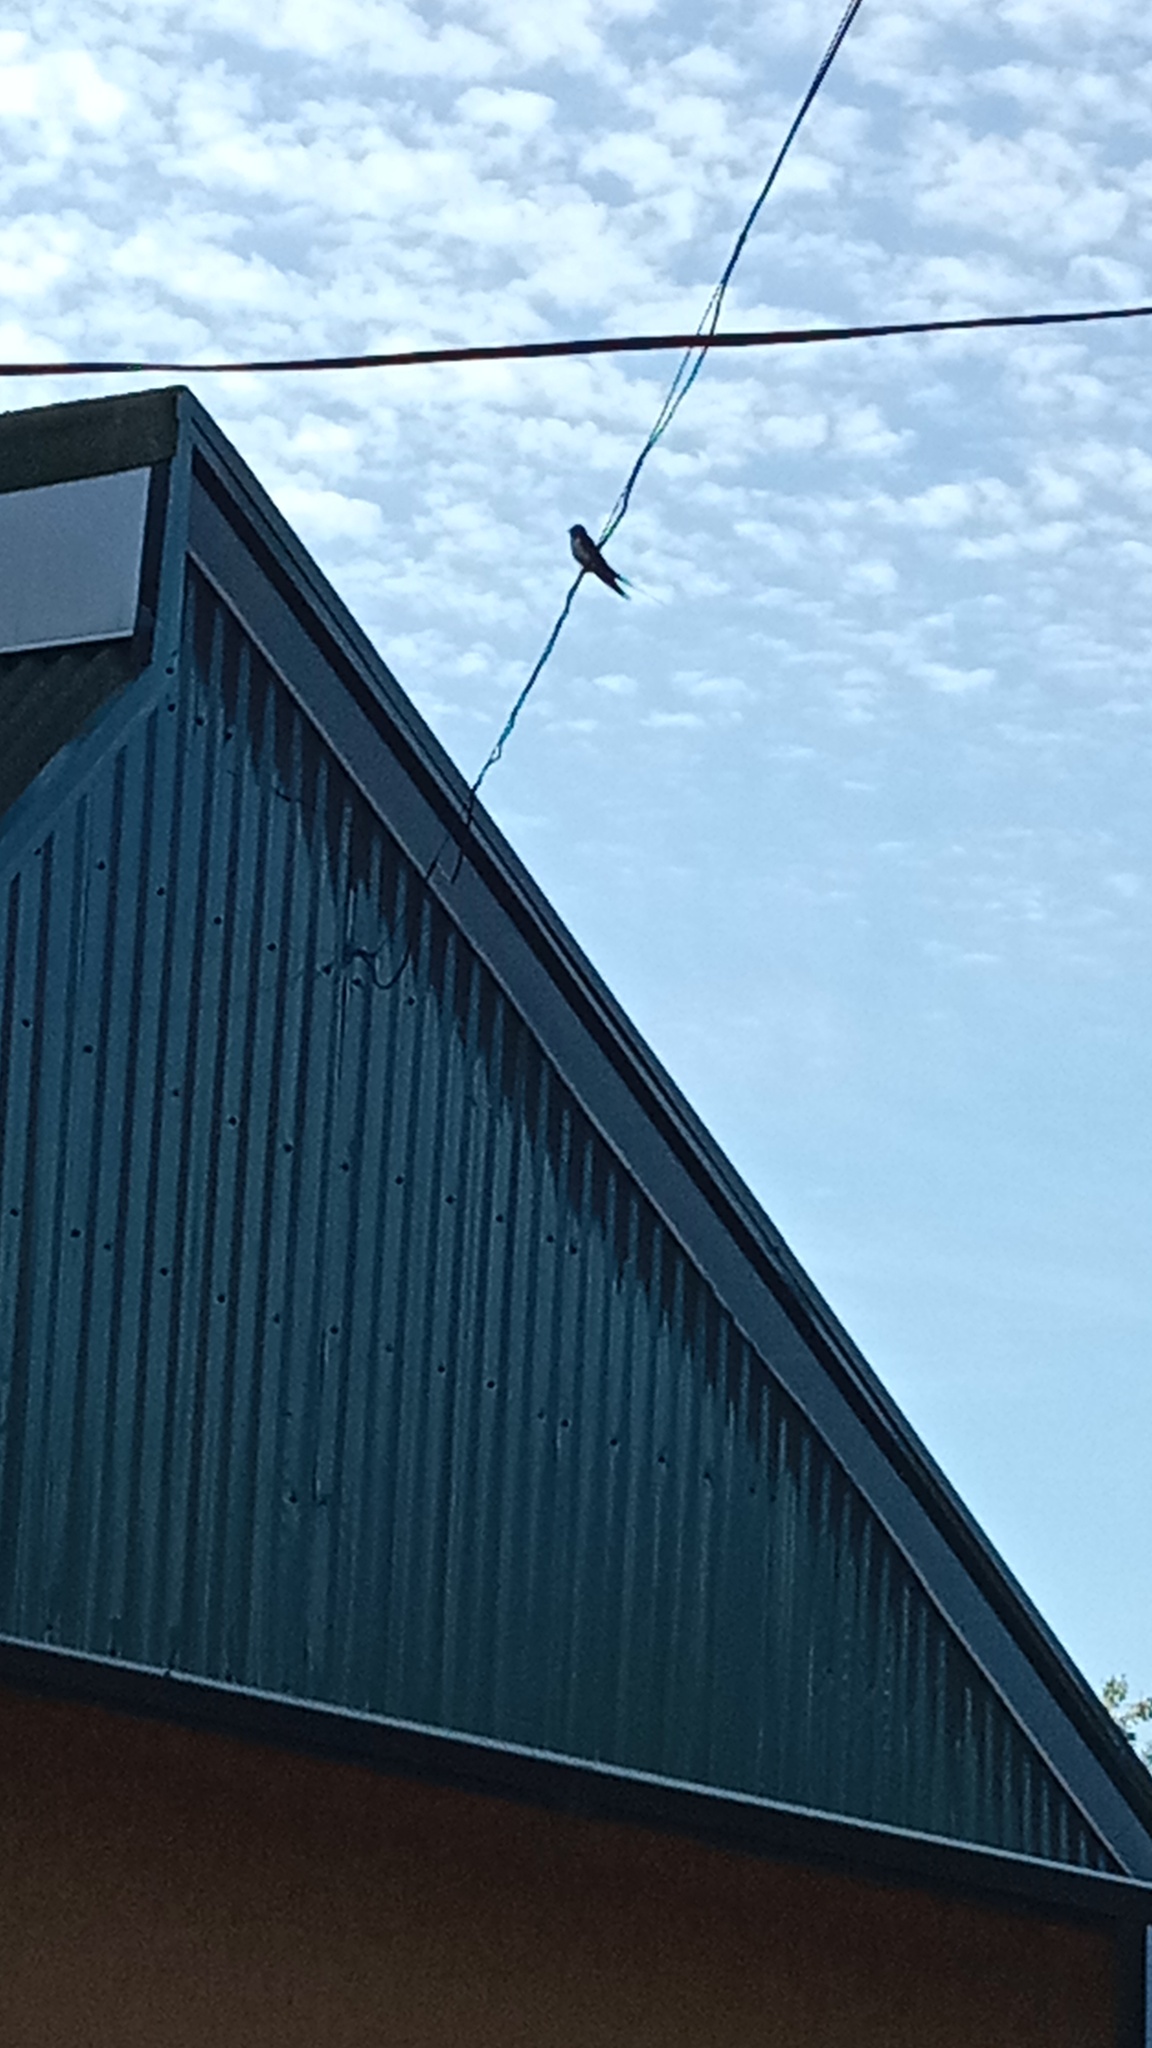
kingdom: Animalia
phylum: Chordata
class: Aves
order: Passeriformes
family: Hirundinidae
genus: Hirundo
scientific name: Hirundo rustica
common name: Barn swallow
